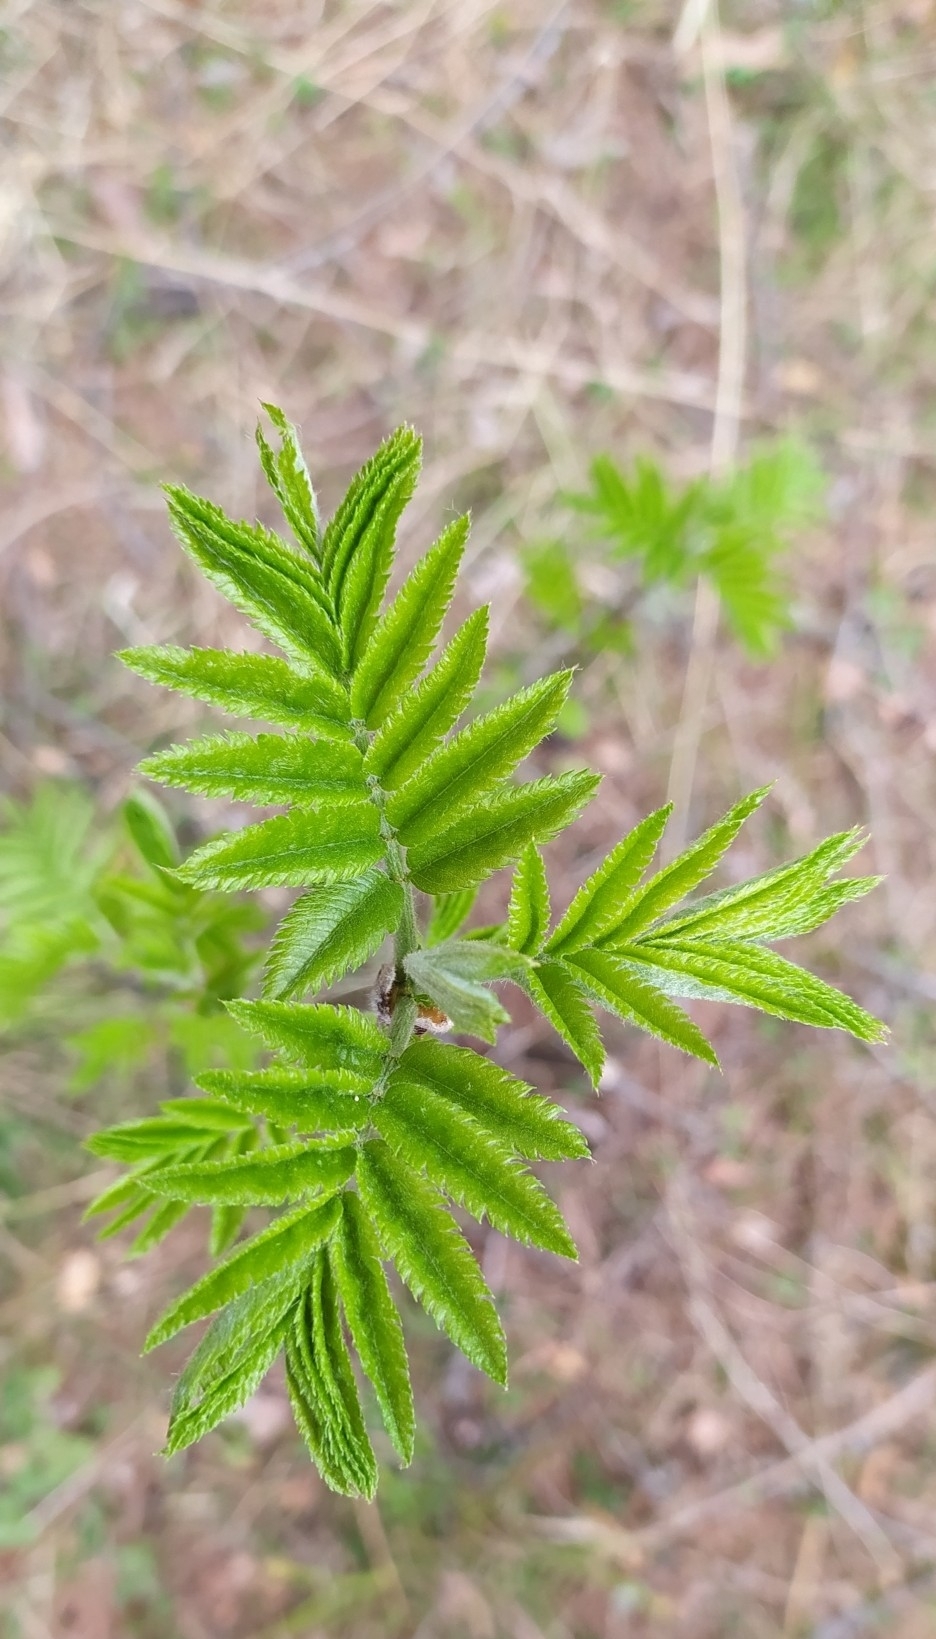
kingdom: Plantae
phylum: Tracheophyta
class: Magnoliopsida
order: Rosales
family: Rosaceae
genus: Sorbus
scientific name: Sorbus aucuparia
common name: Rowan
